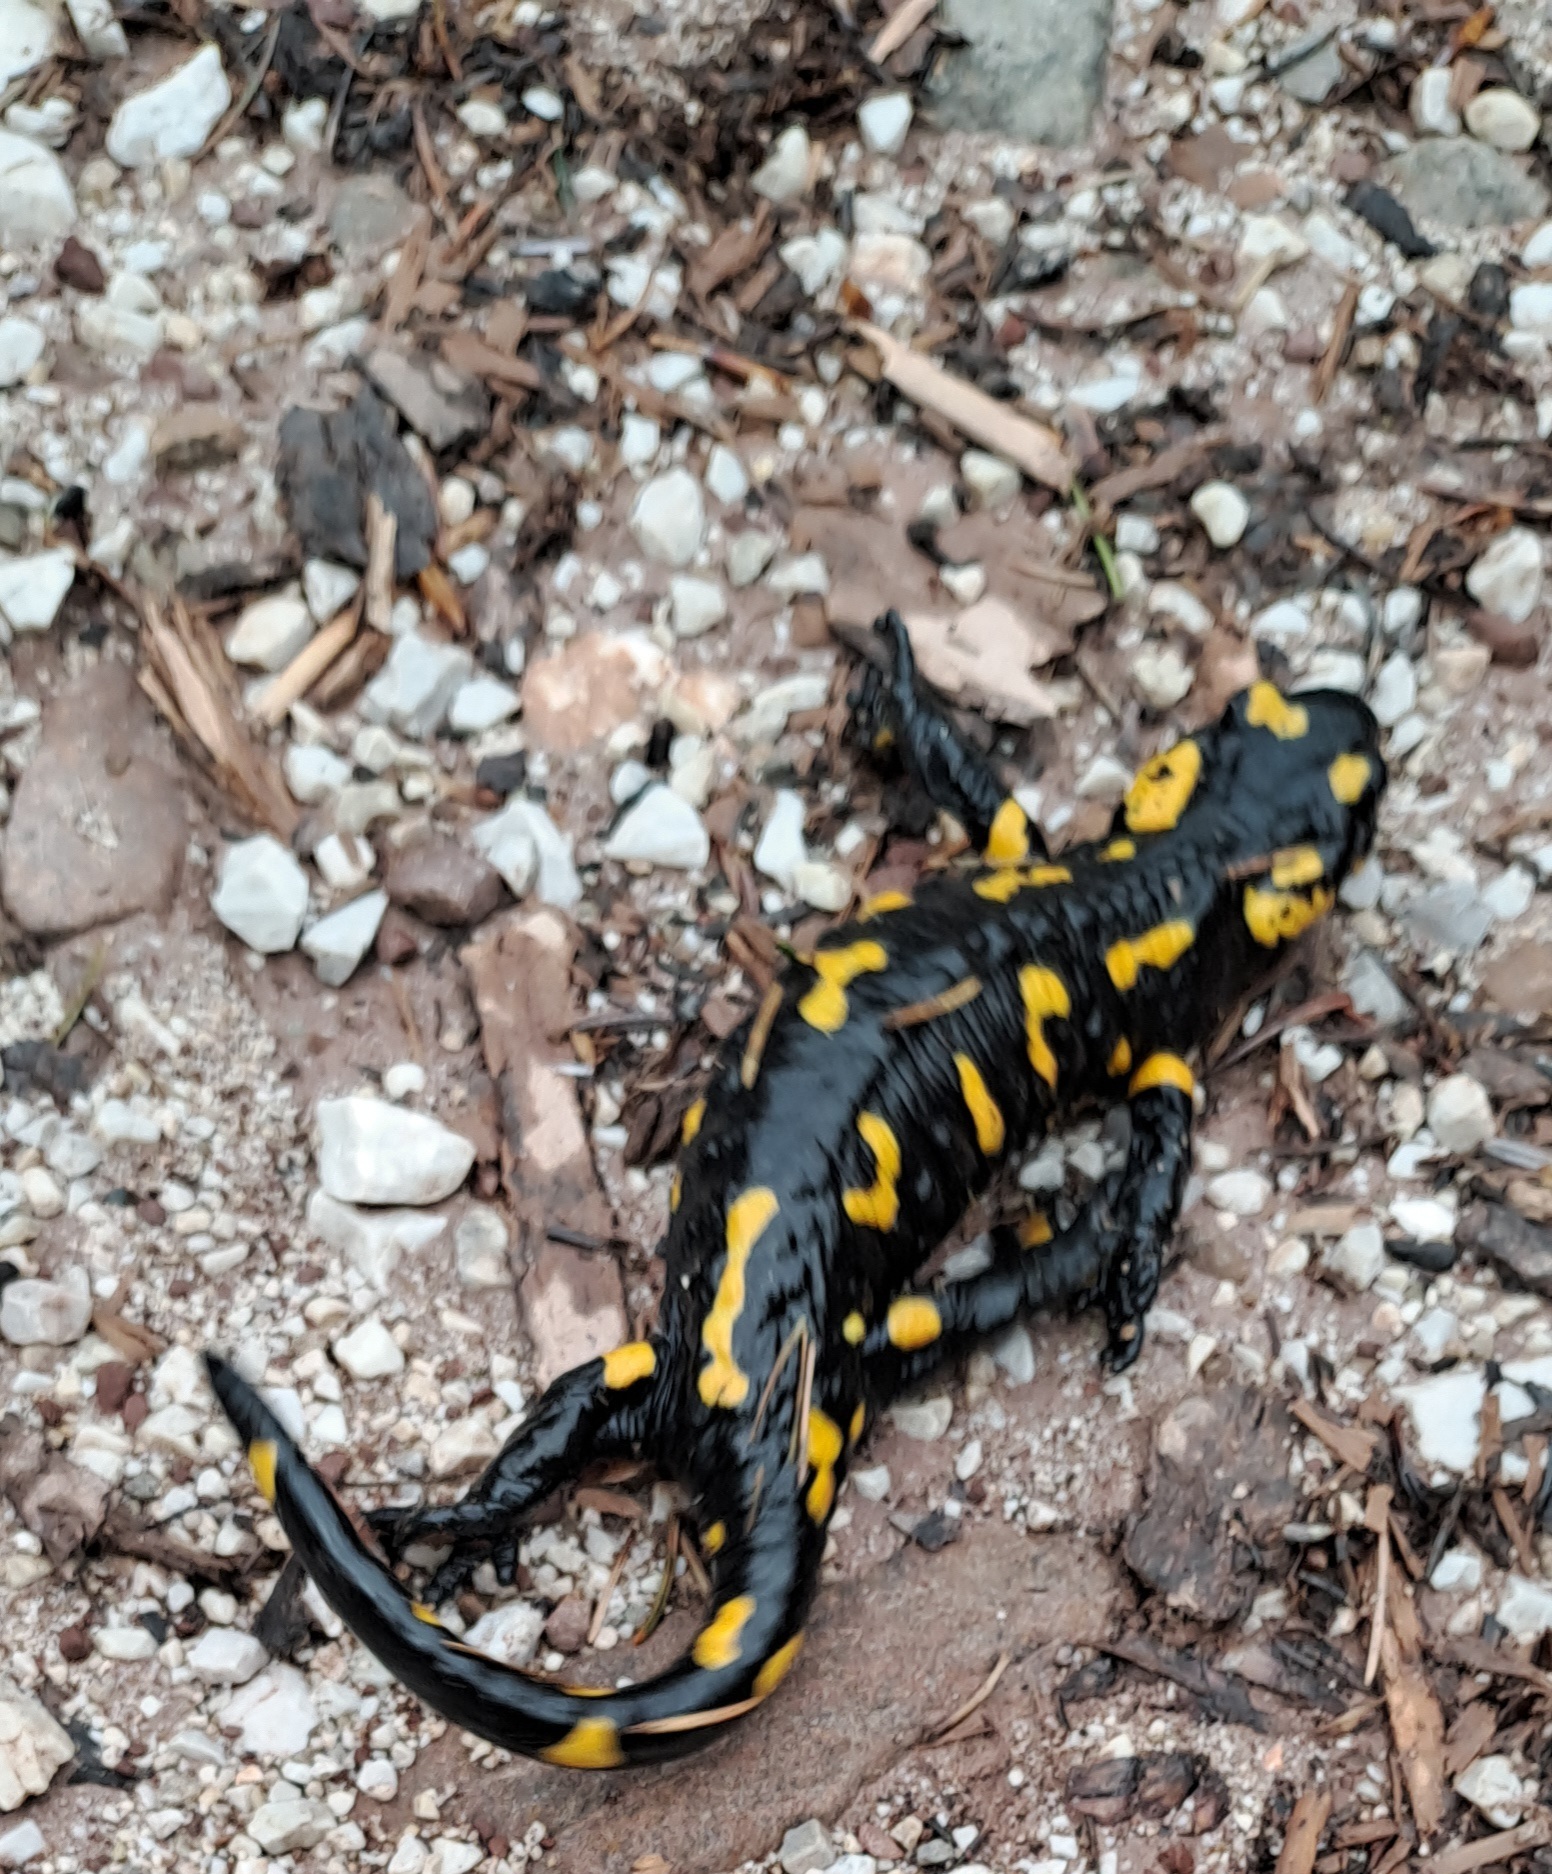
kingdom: Animalia
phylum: Chordata
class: Amphibia
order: Caudata
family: Salamandridae
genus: Salamandra
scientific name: Salamandra salamandra
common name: Fire salamander
